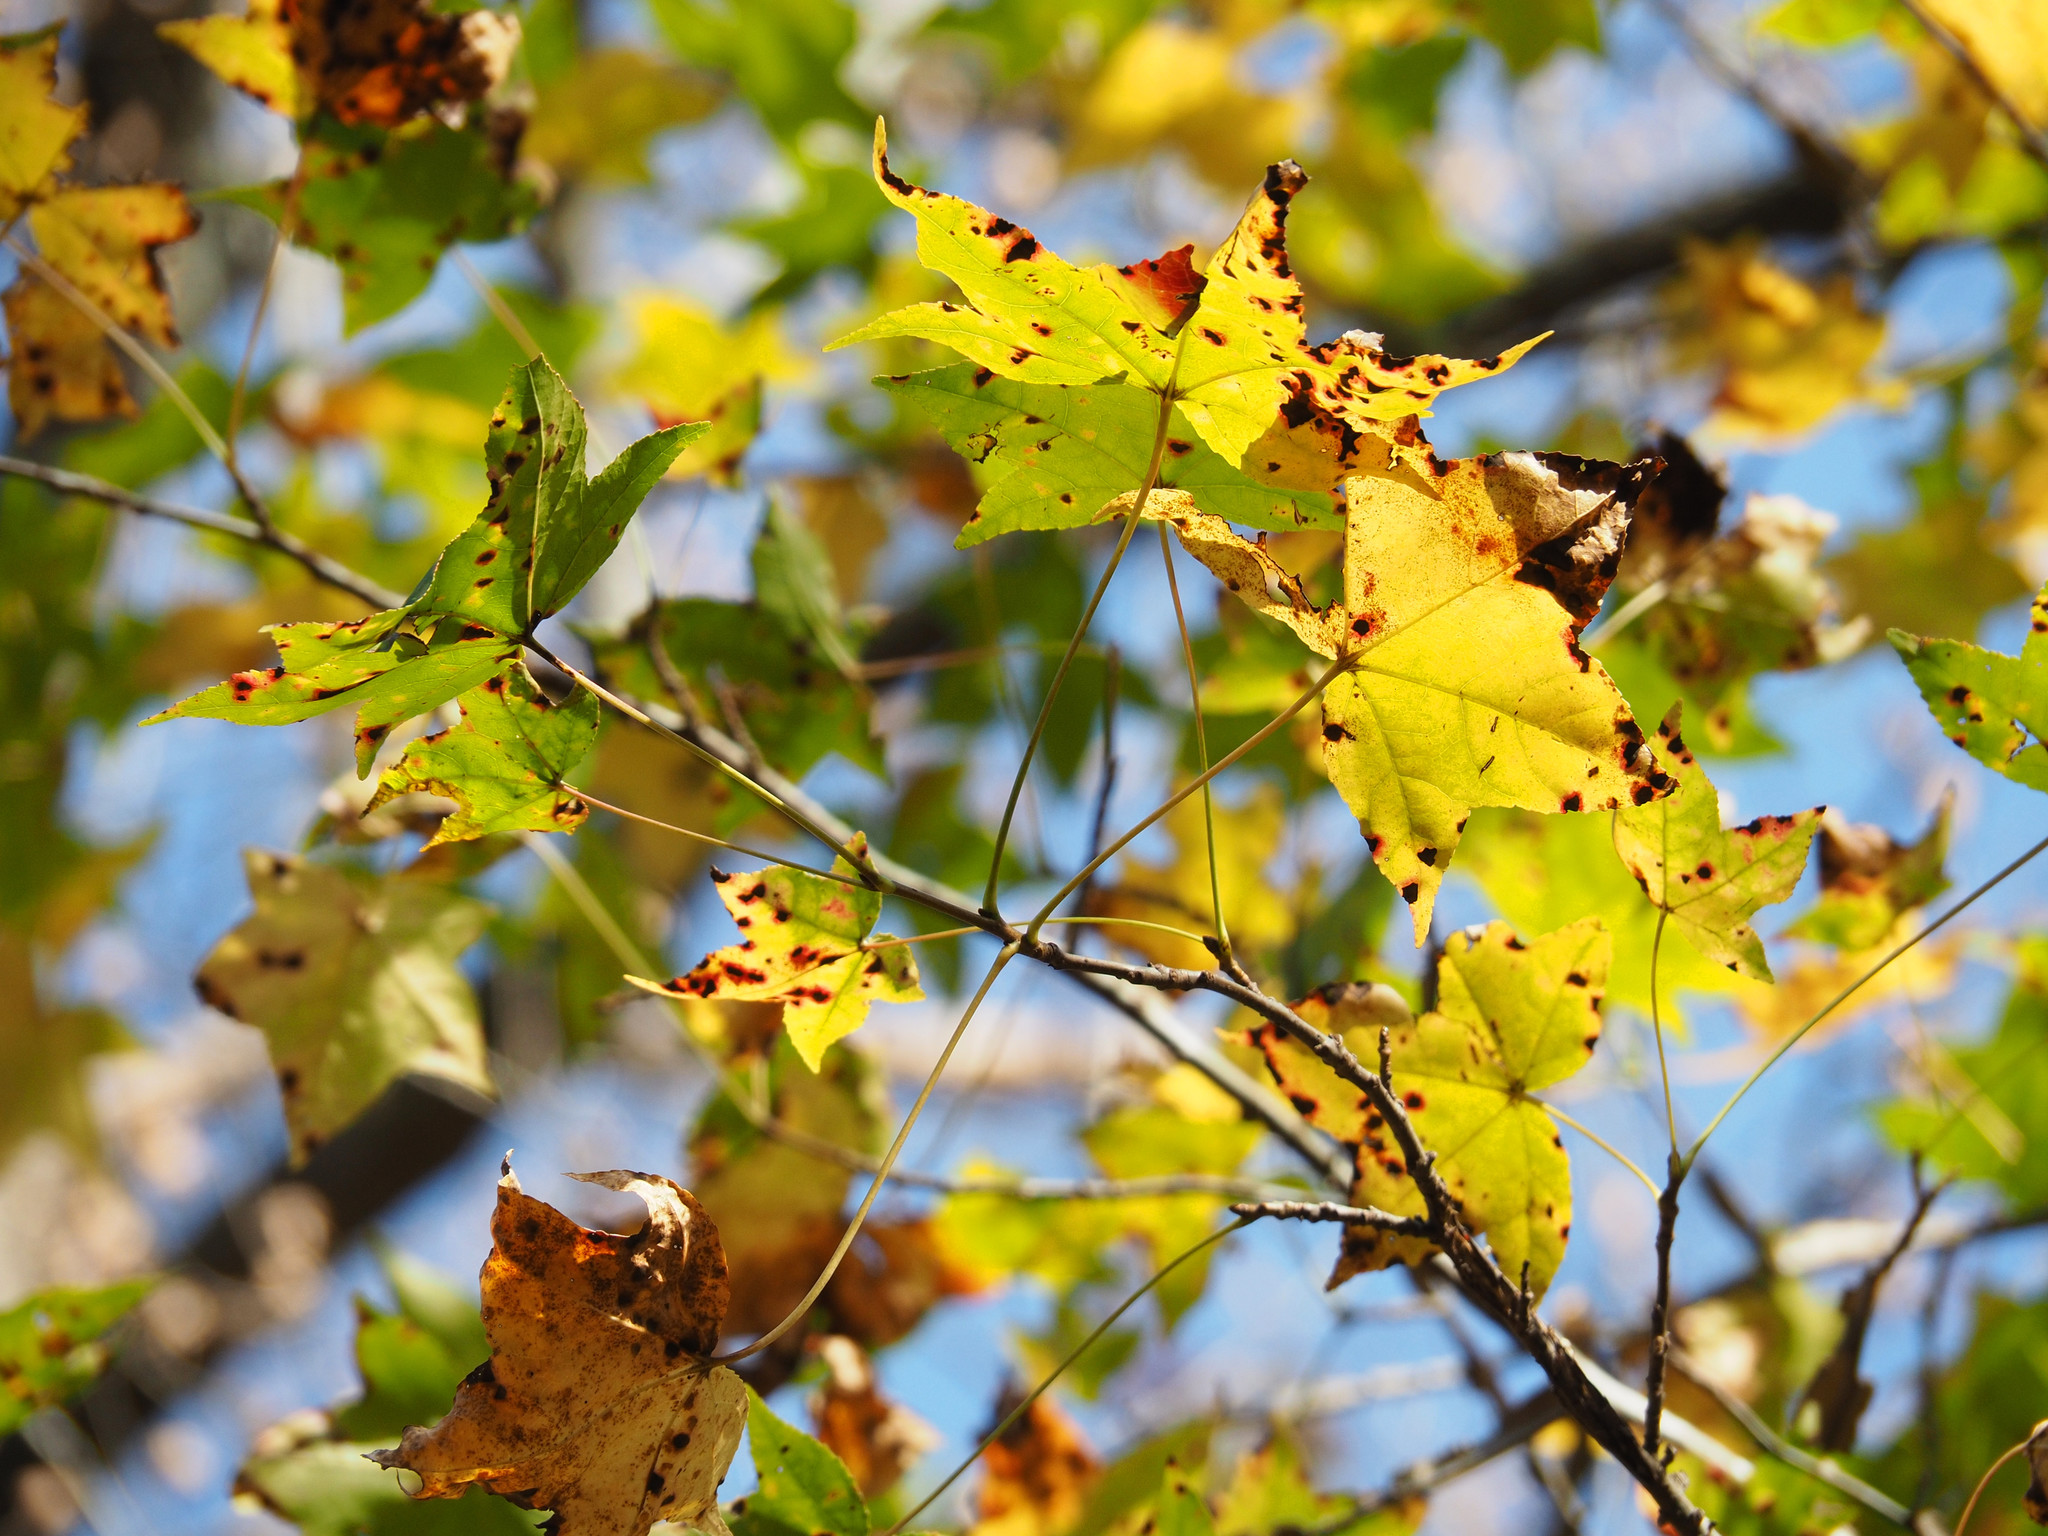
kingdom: Plantae
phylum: Tracheophyta
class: Magnoliopsida
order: Saxifragales
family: Altingiaceae
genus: Liquidambar
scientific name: Liquidambar styraciflua
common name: Sweet gum
